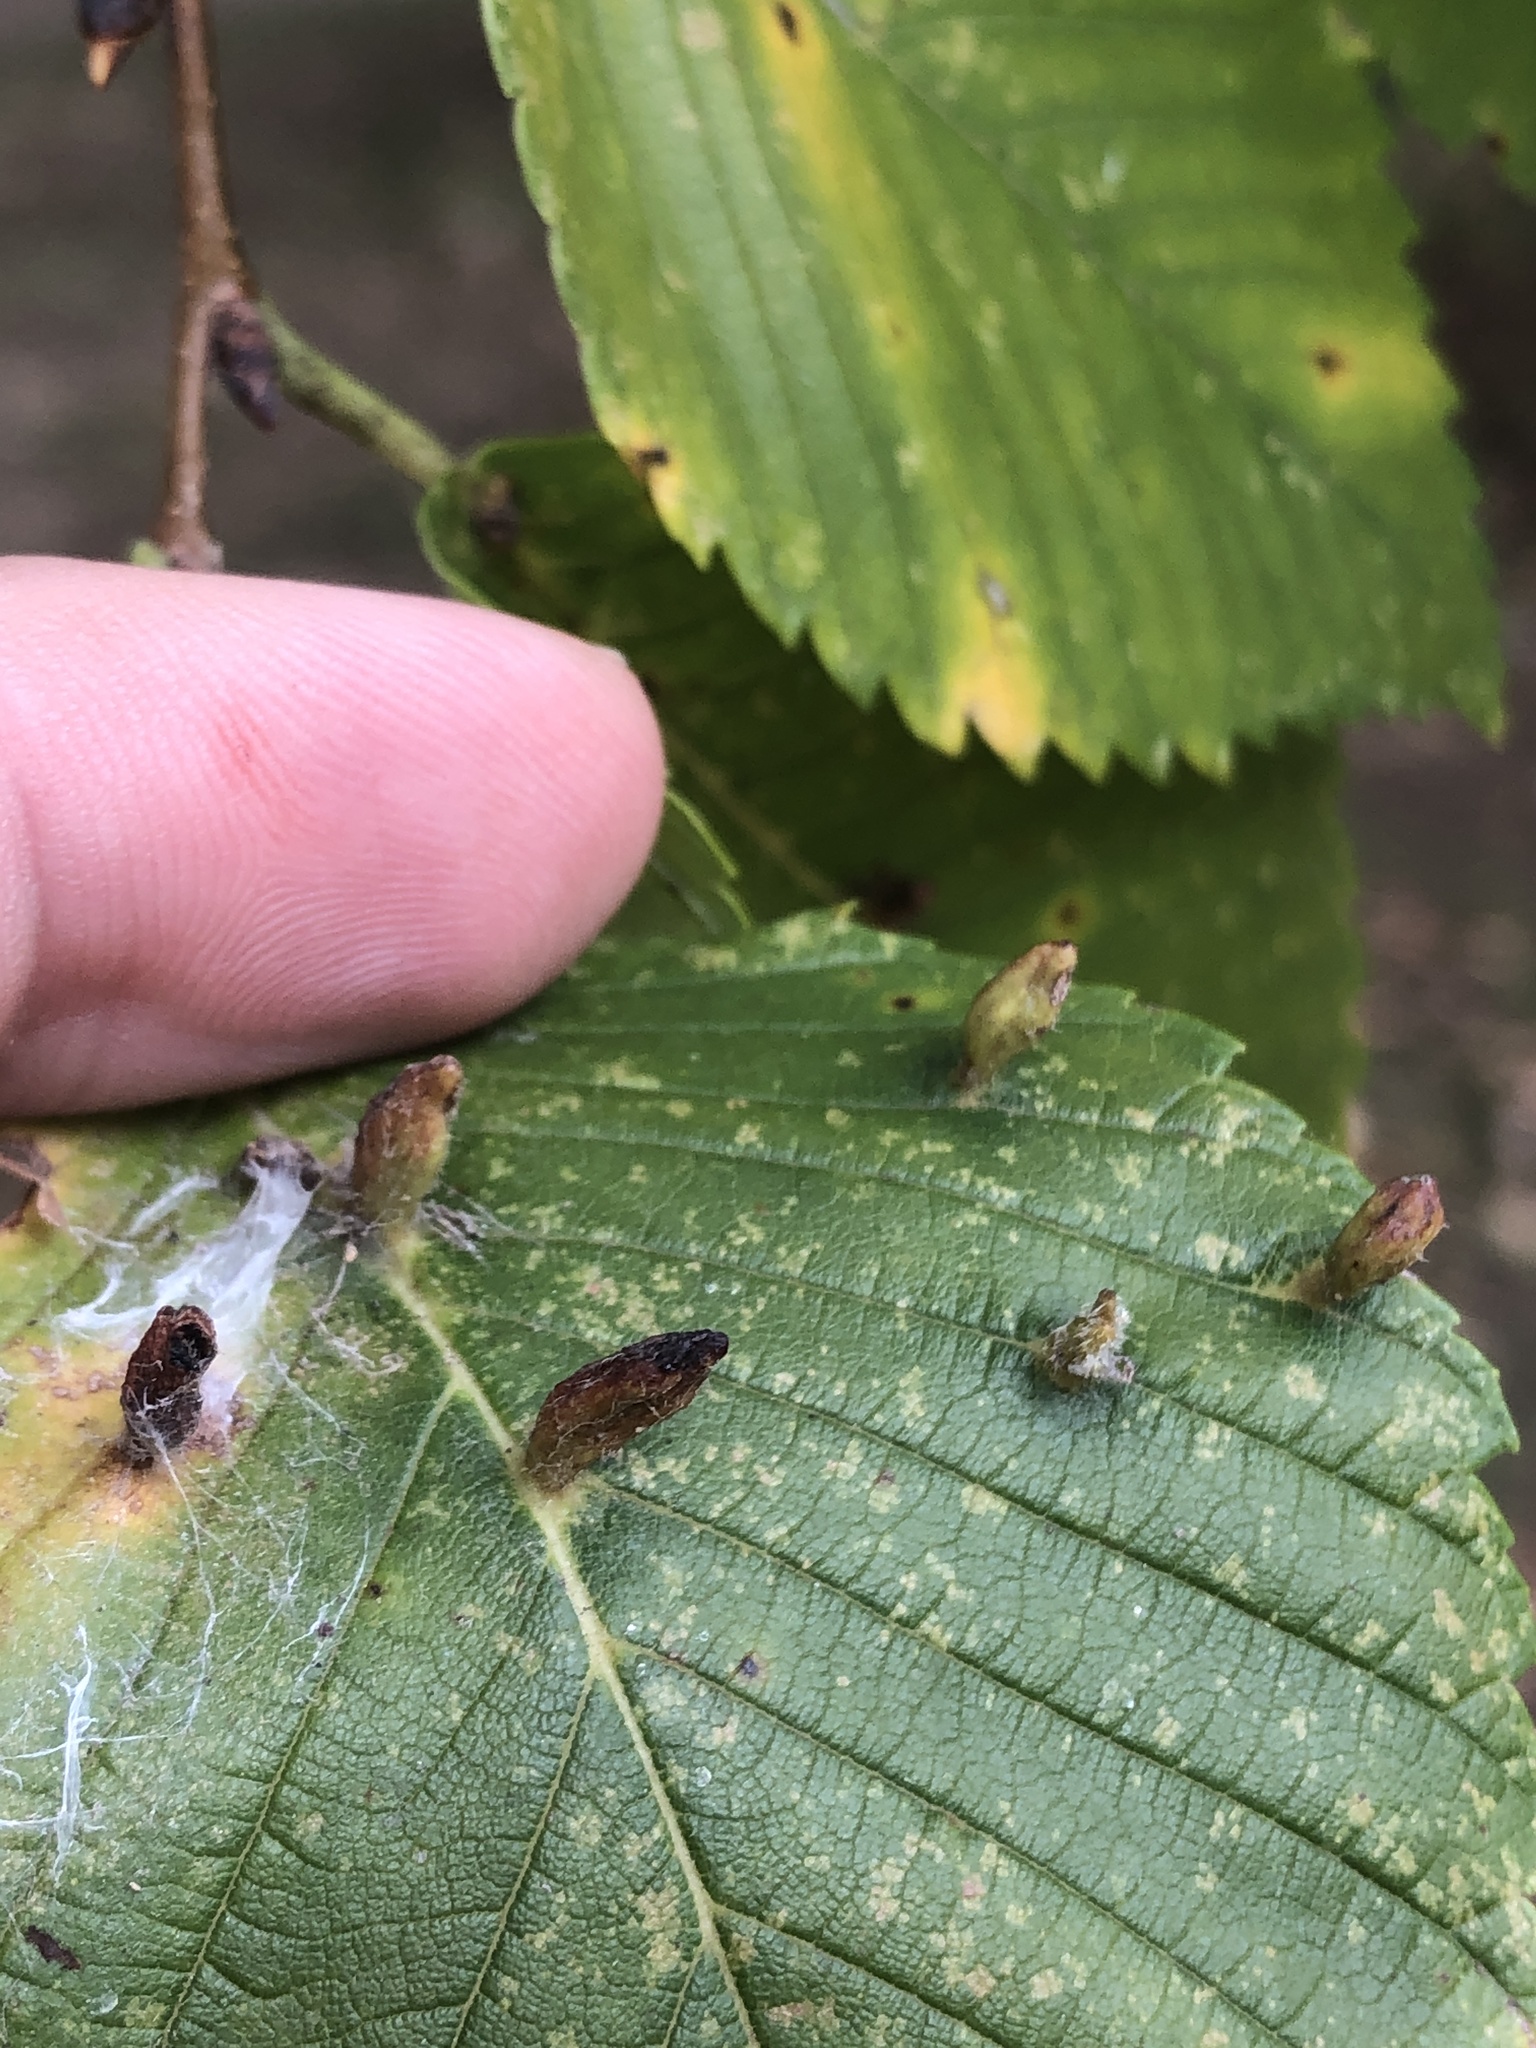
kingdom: Animalia
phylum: Arthropoda
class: Arachnida
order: Trombidiformes
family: Eriophyidae
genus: Aceria
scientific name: Aceria
